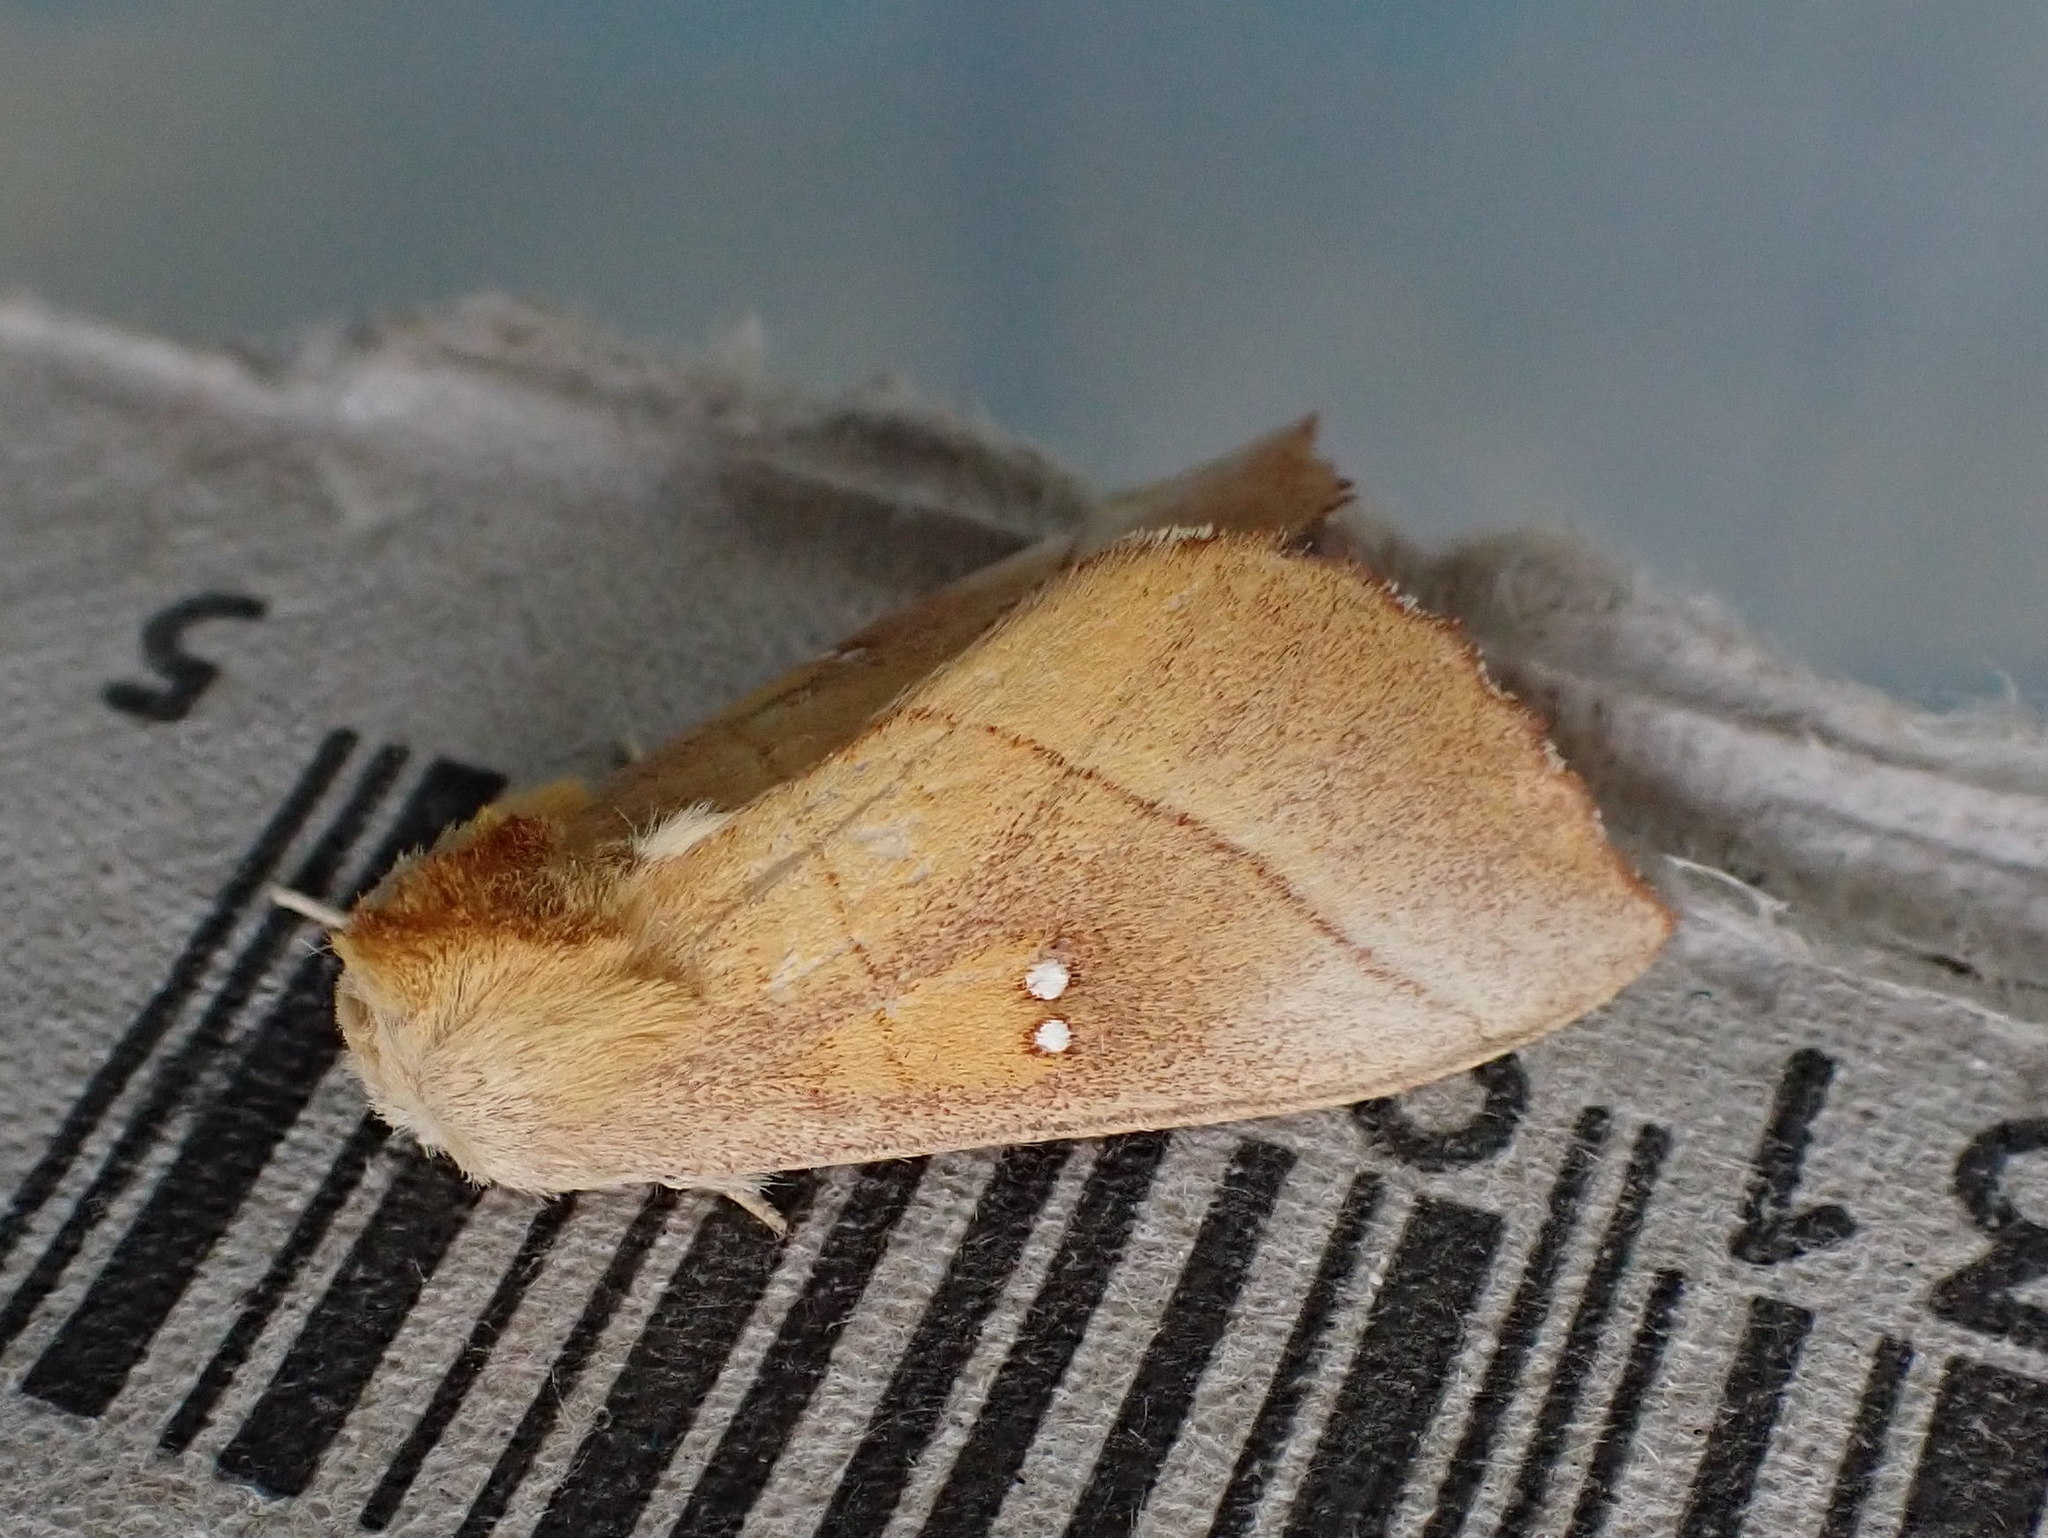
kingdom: Animalia
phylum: Arthropoda
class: Insecta
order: Lepidoptera
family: Notodontidae
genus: Nadata
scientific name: Nadata gibbosa
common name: White-dotted prominent
